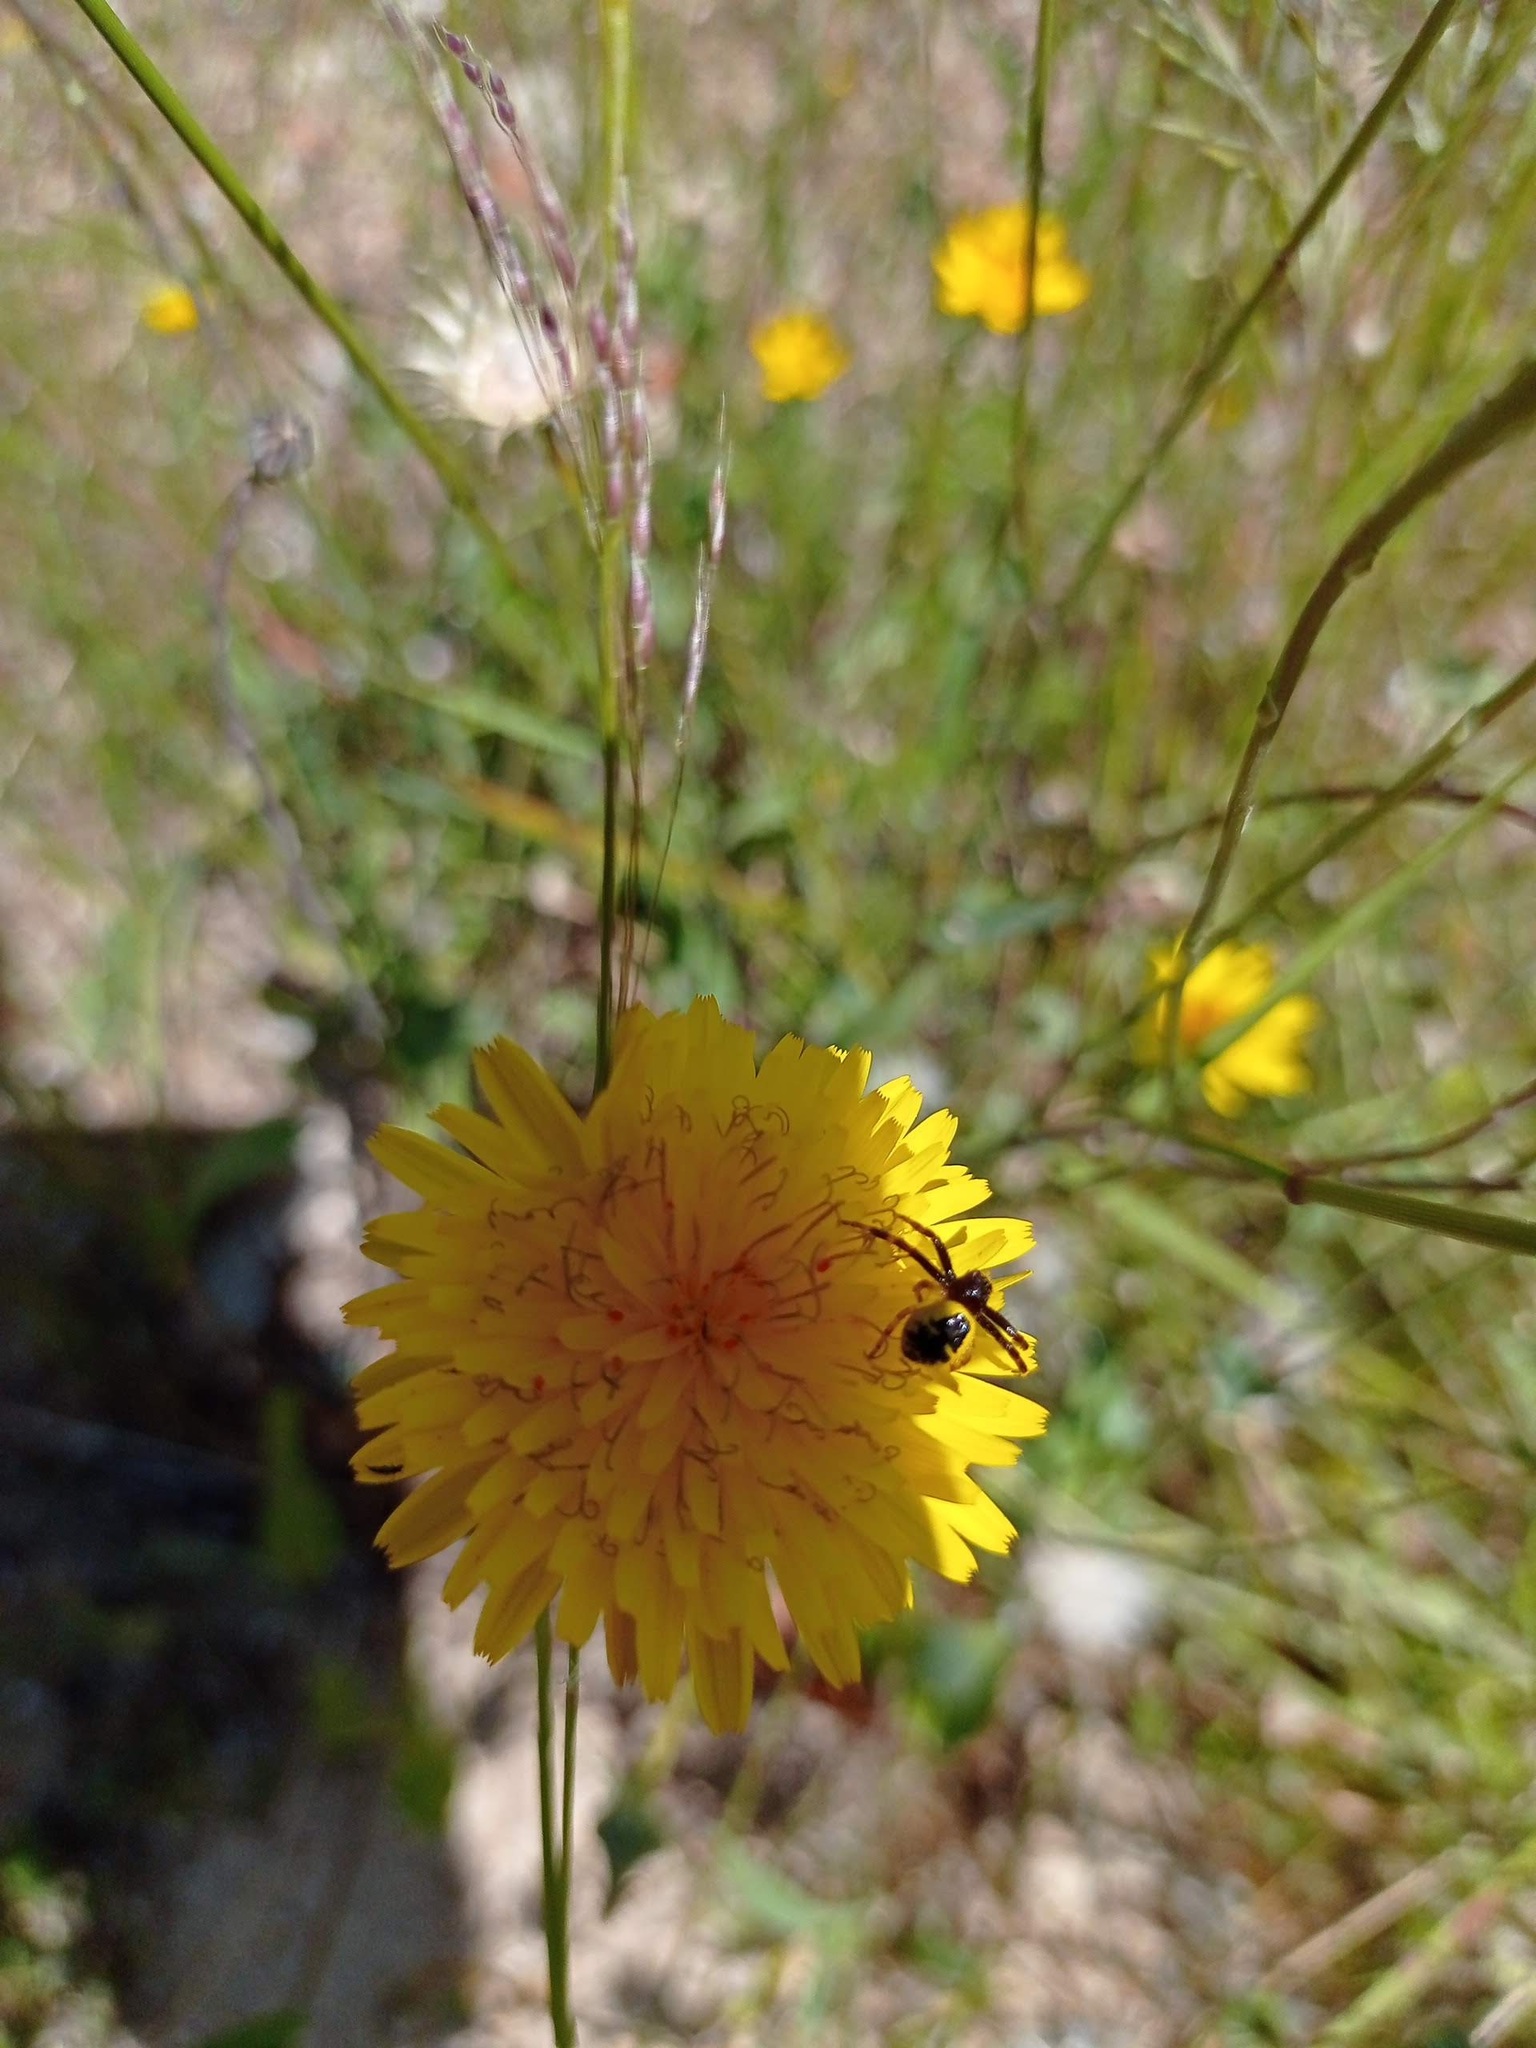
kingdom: Animalia
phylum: Arthropoda
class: Arachnida
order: Araneae
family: Thomisidae
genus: Synema
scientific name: Synema globosum
